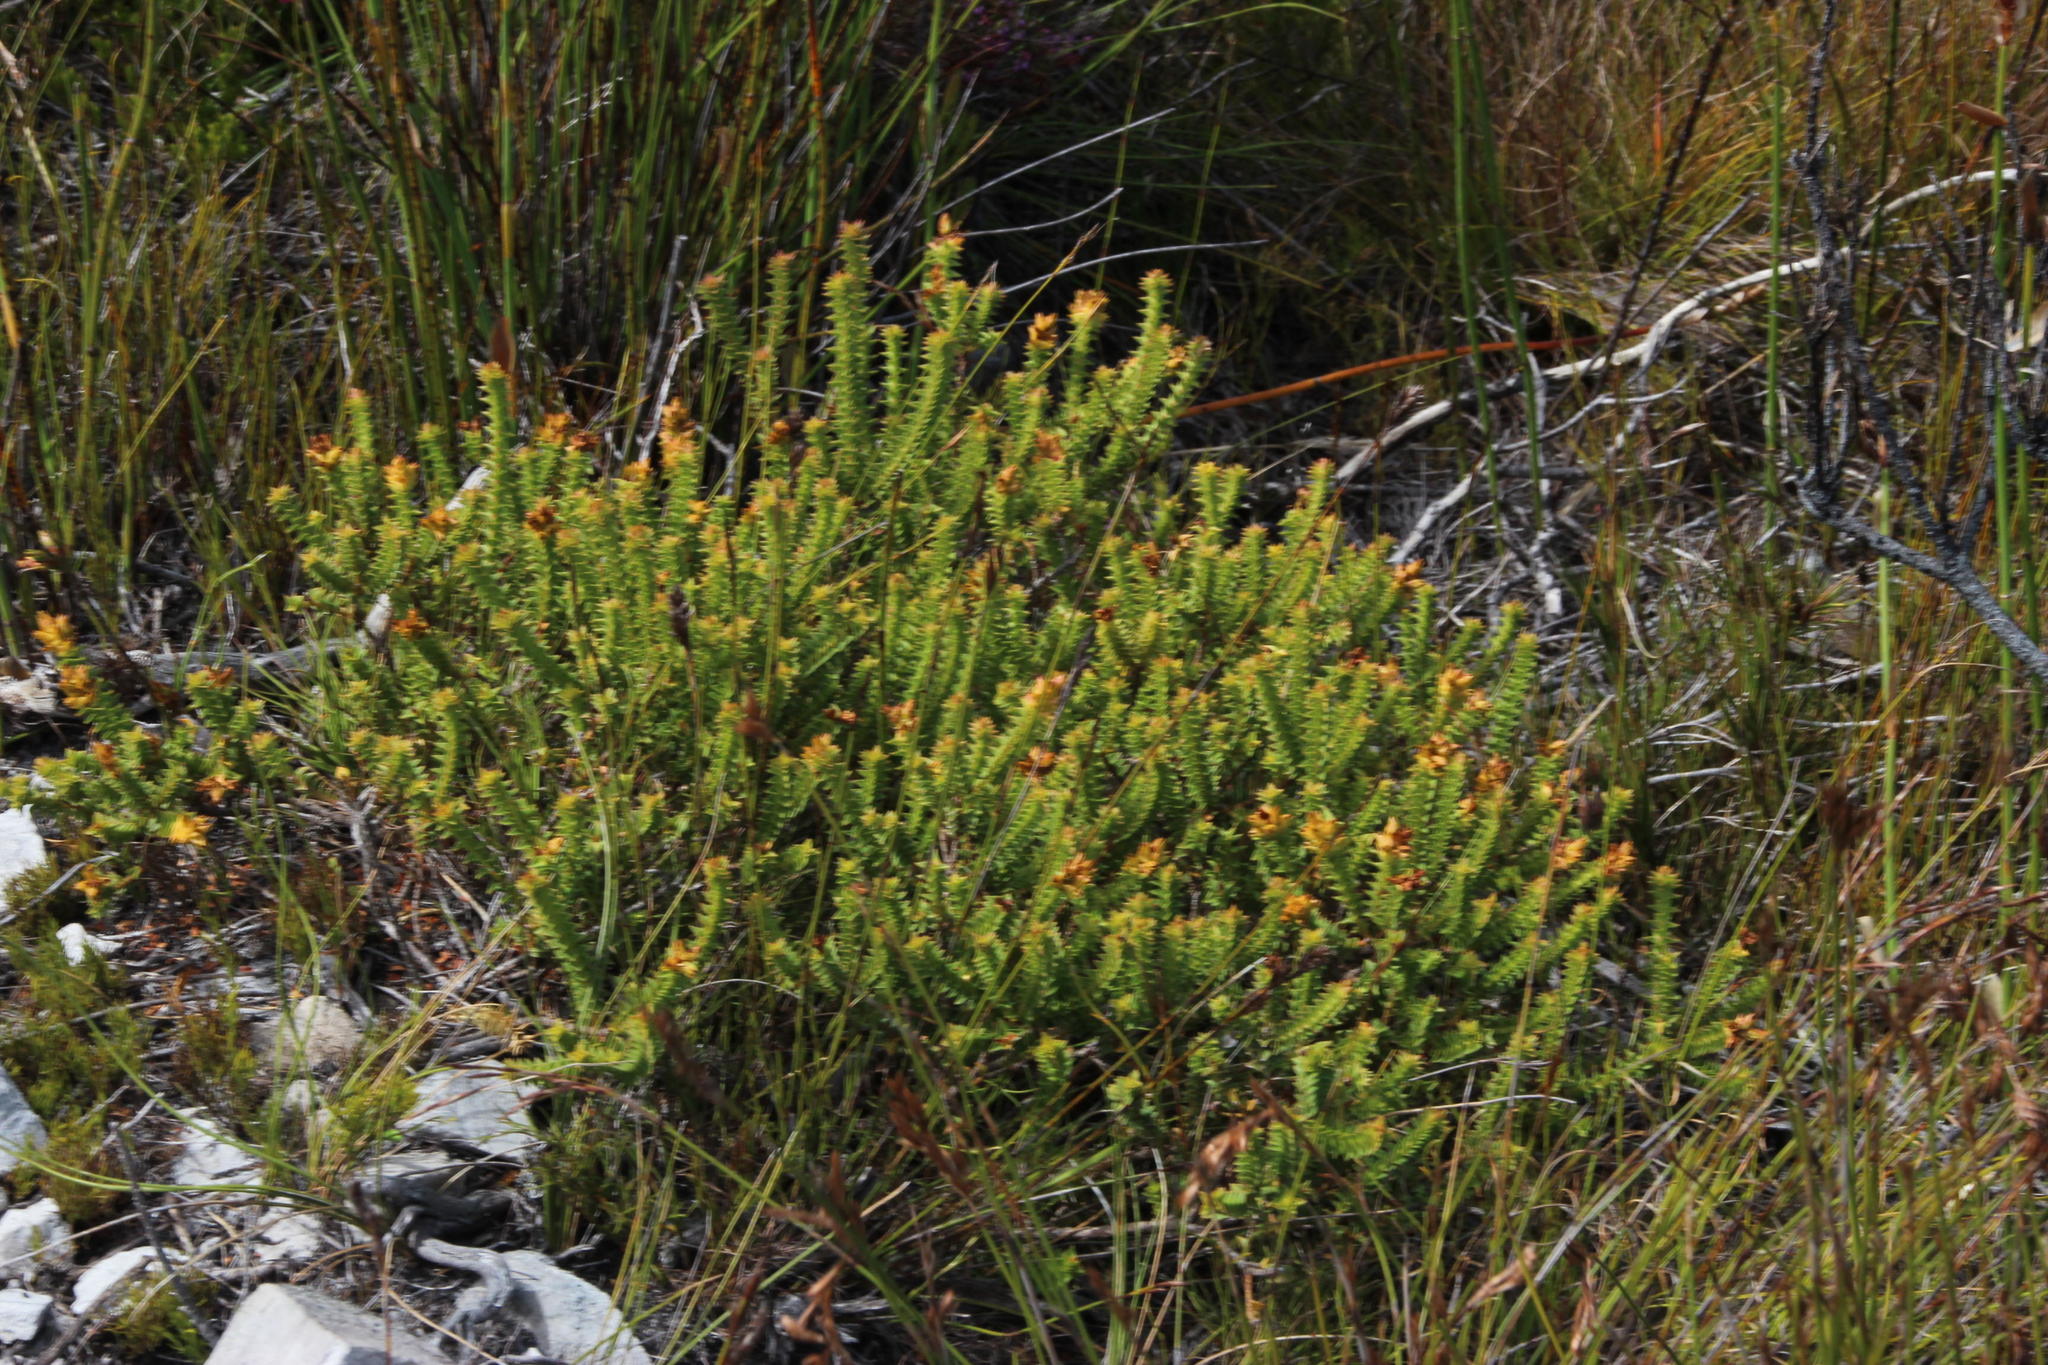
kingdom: Plantae
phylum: Tracheophyta
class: Magnoliopsida
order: Myrtales
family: Penaeaceae
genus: Penaea
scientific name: Penaea mucronata
